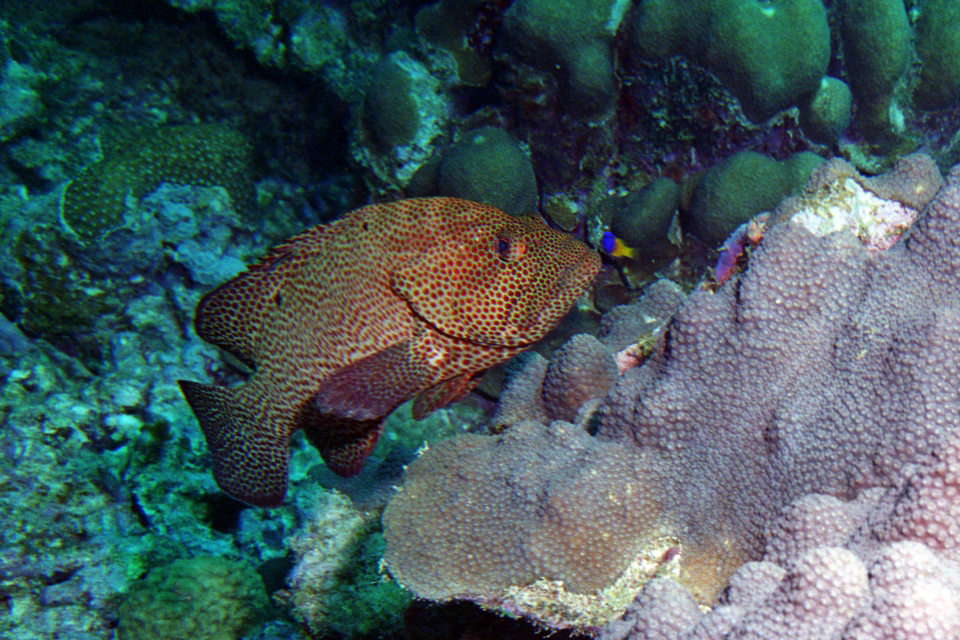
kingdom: Animalia
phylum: Chordata
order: Perciformes
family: Serranidae
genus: Cephalopholis
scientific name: Cephalopholis cruentata
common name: Graysby
